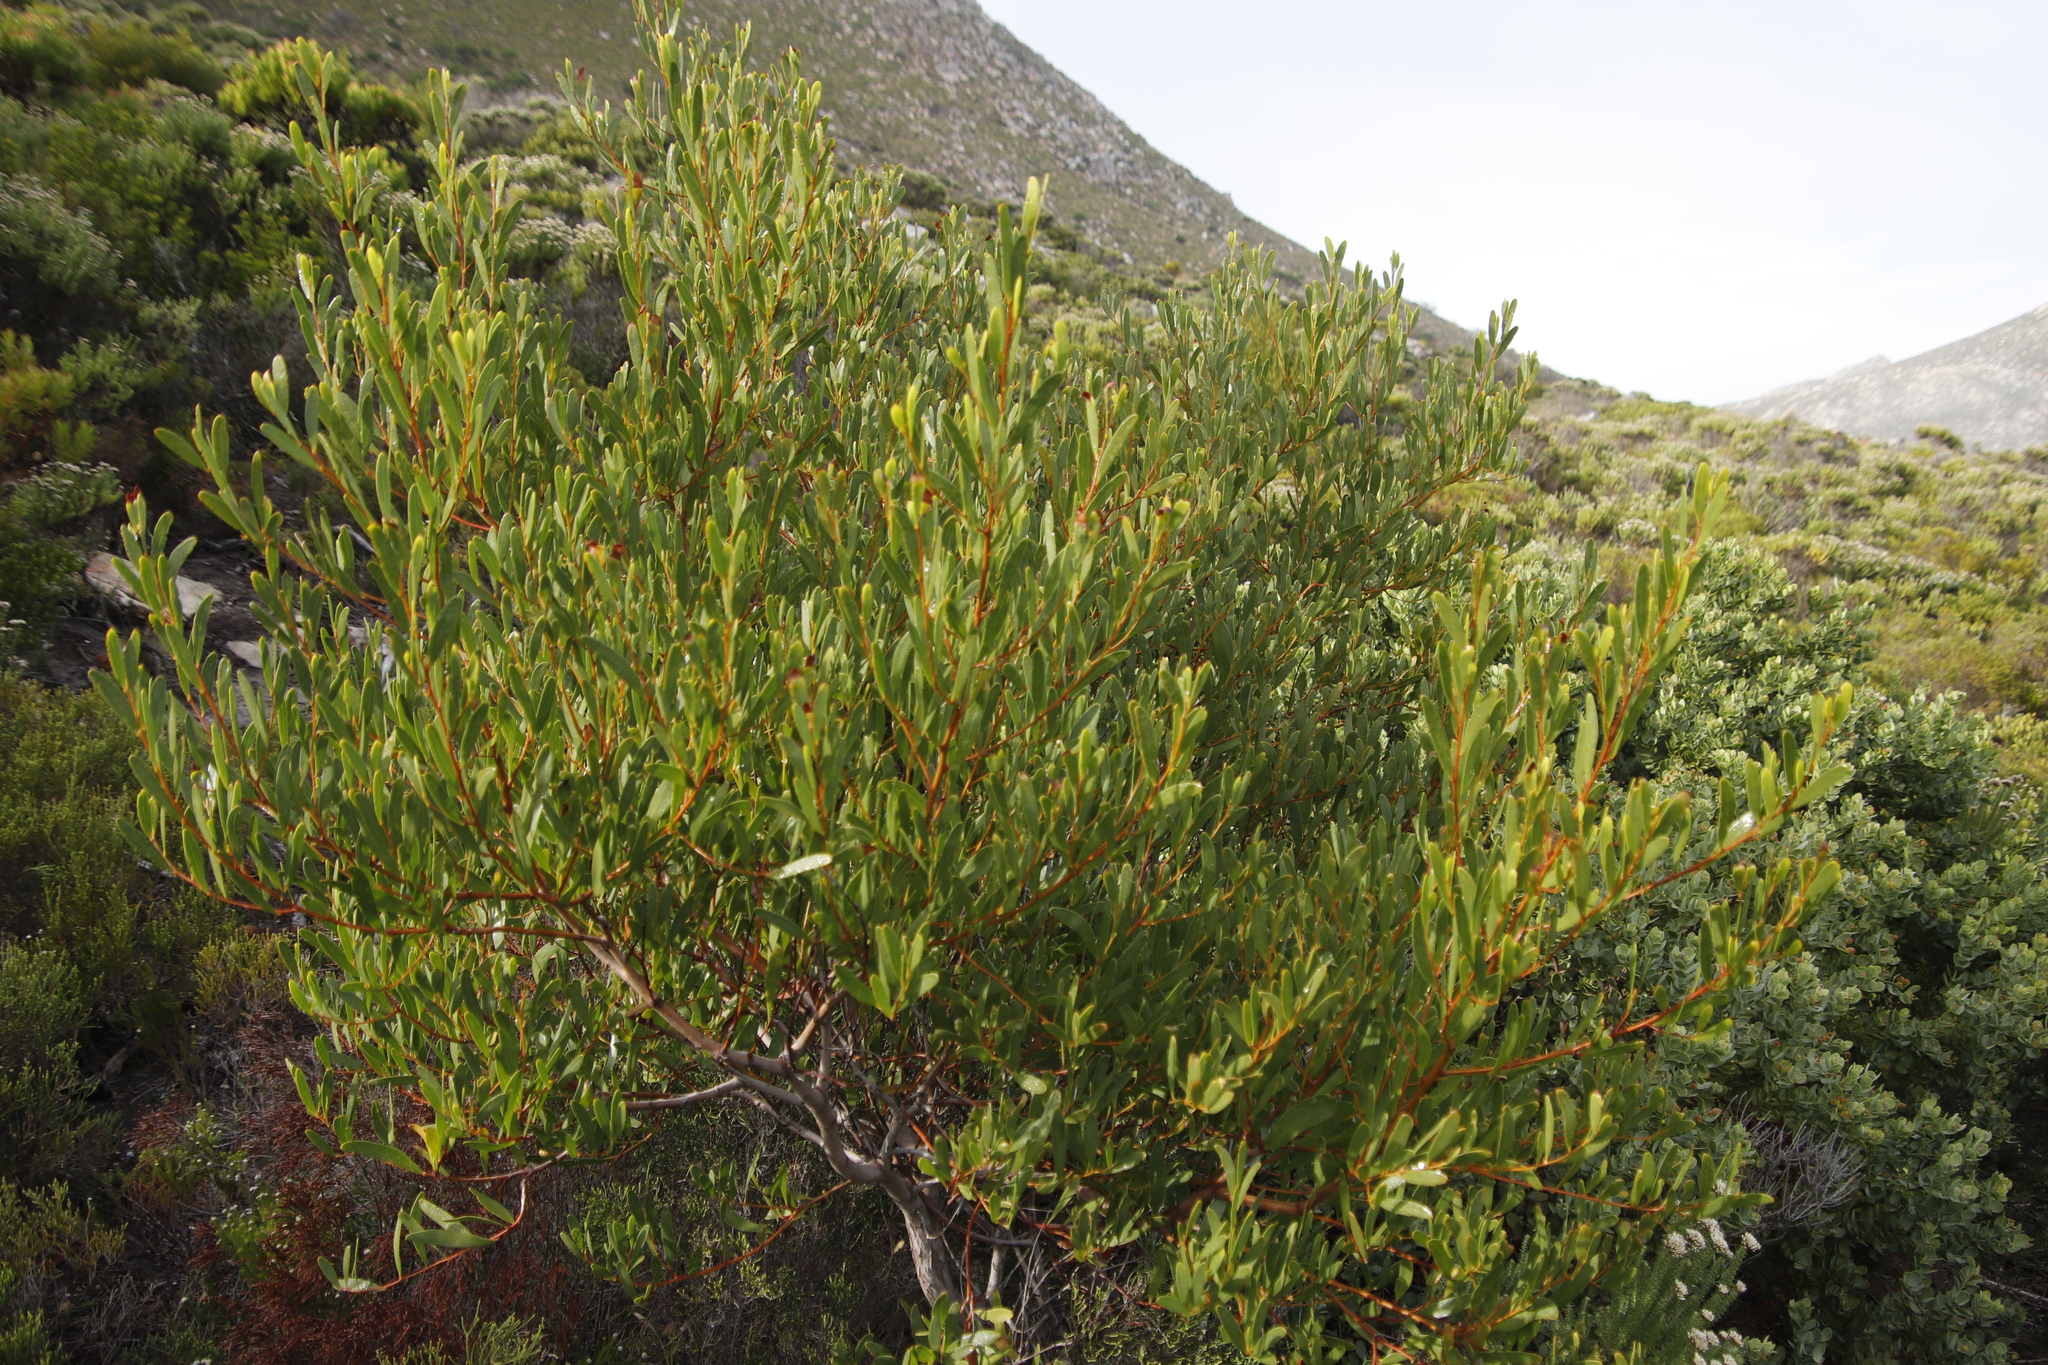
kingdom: Plantae
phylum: Tracheophyta
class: Magnoliopsida
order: Fabales
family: Fabaceae
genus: Acacia
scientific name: Acacia cyclops
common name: Coastal wattle
